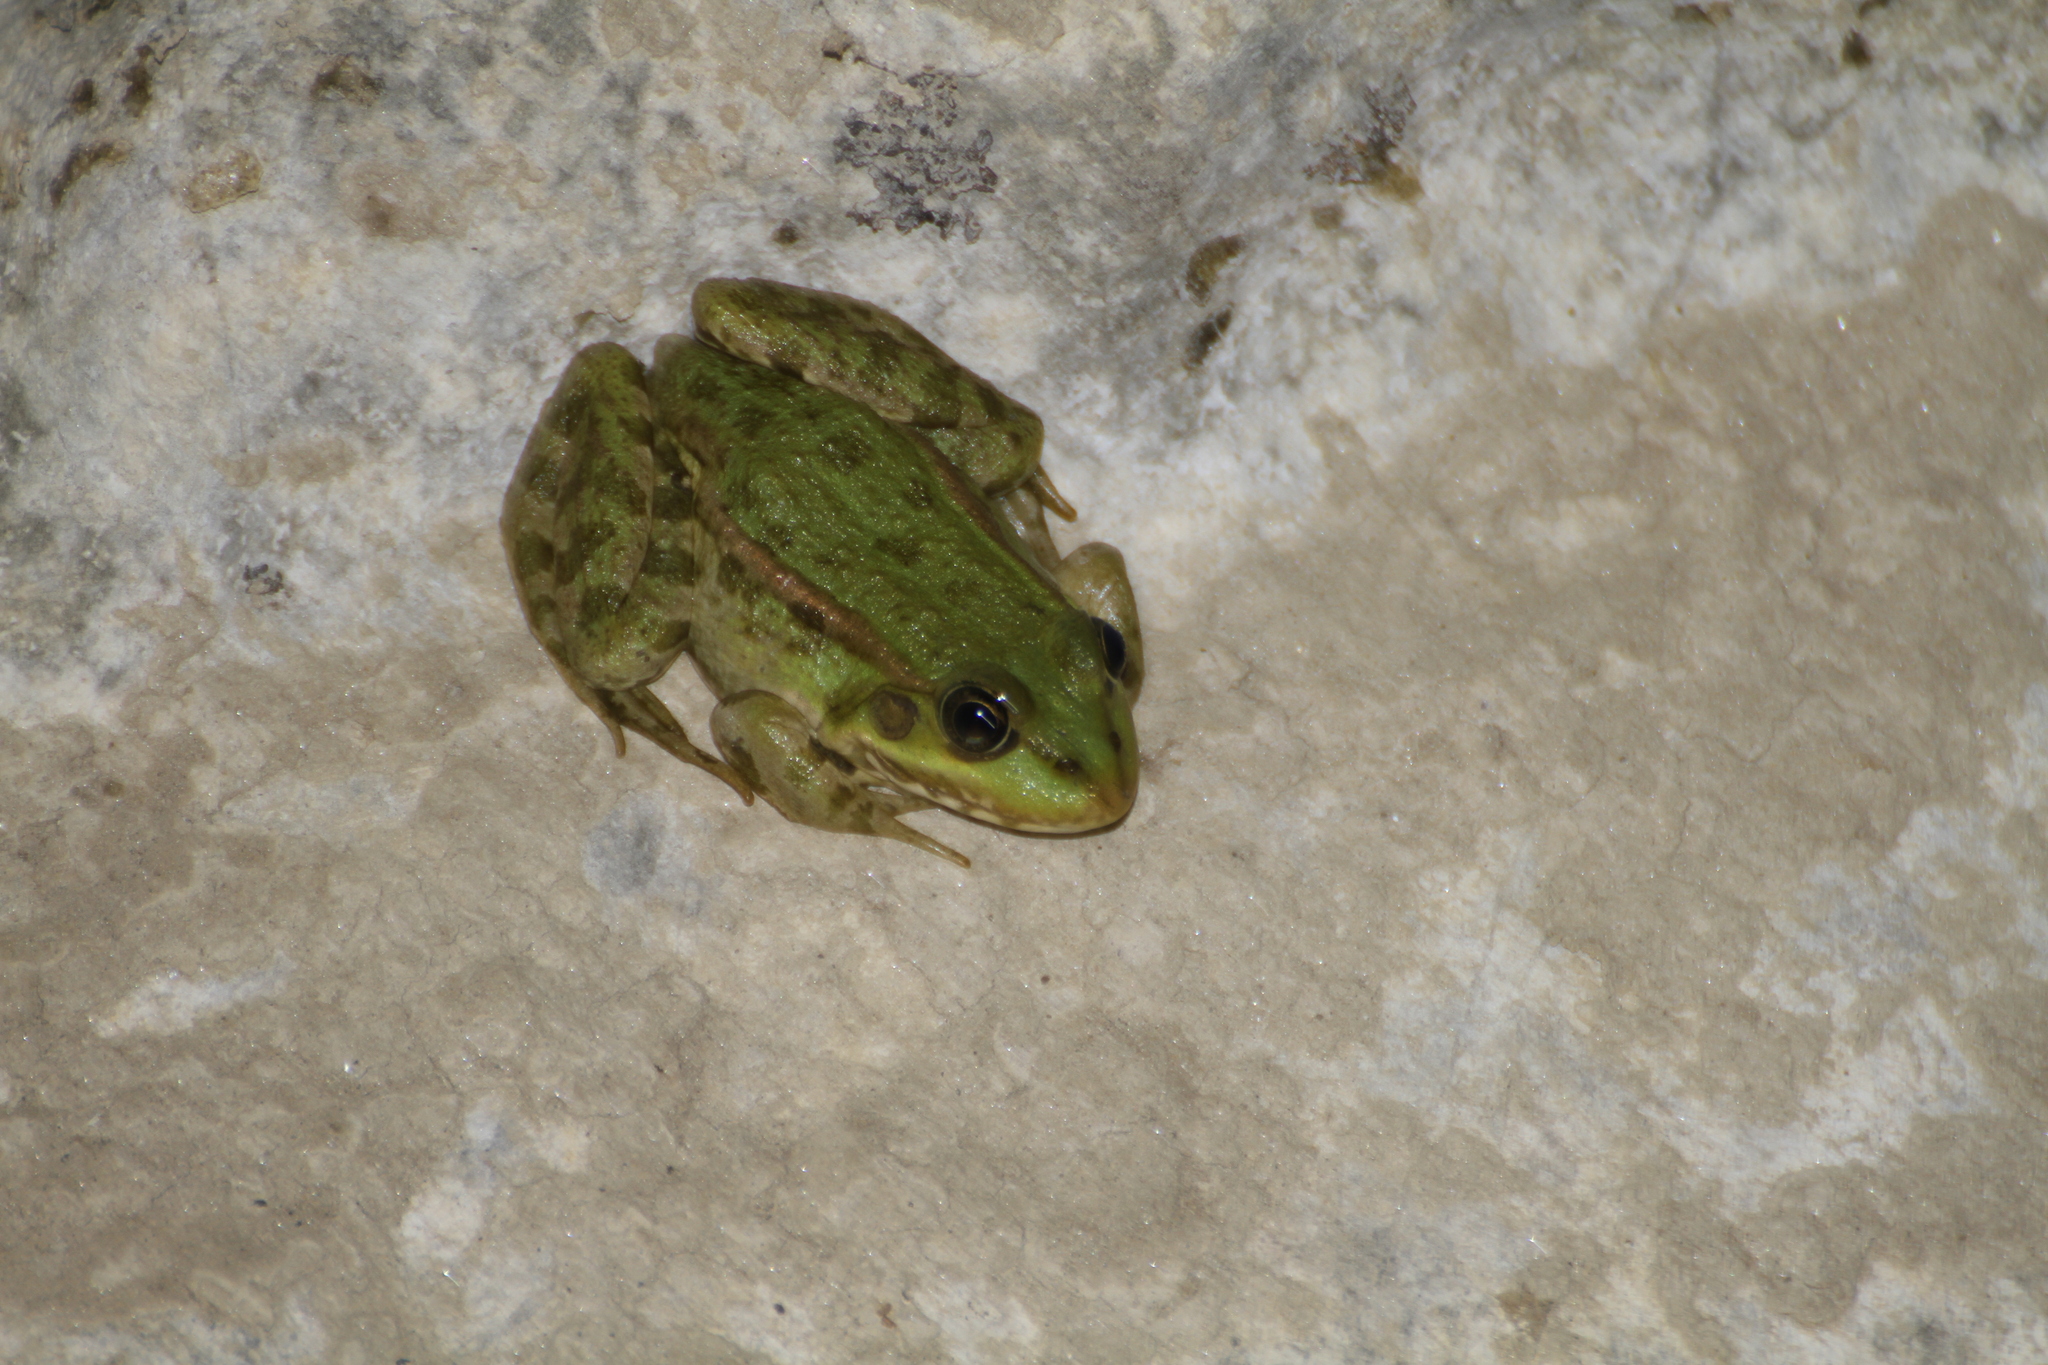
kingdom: Animalia
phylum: Chordata
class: Amphibia
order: Anura
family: Ranidae
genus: Pelophylax
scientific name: Pelophylax
